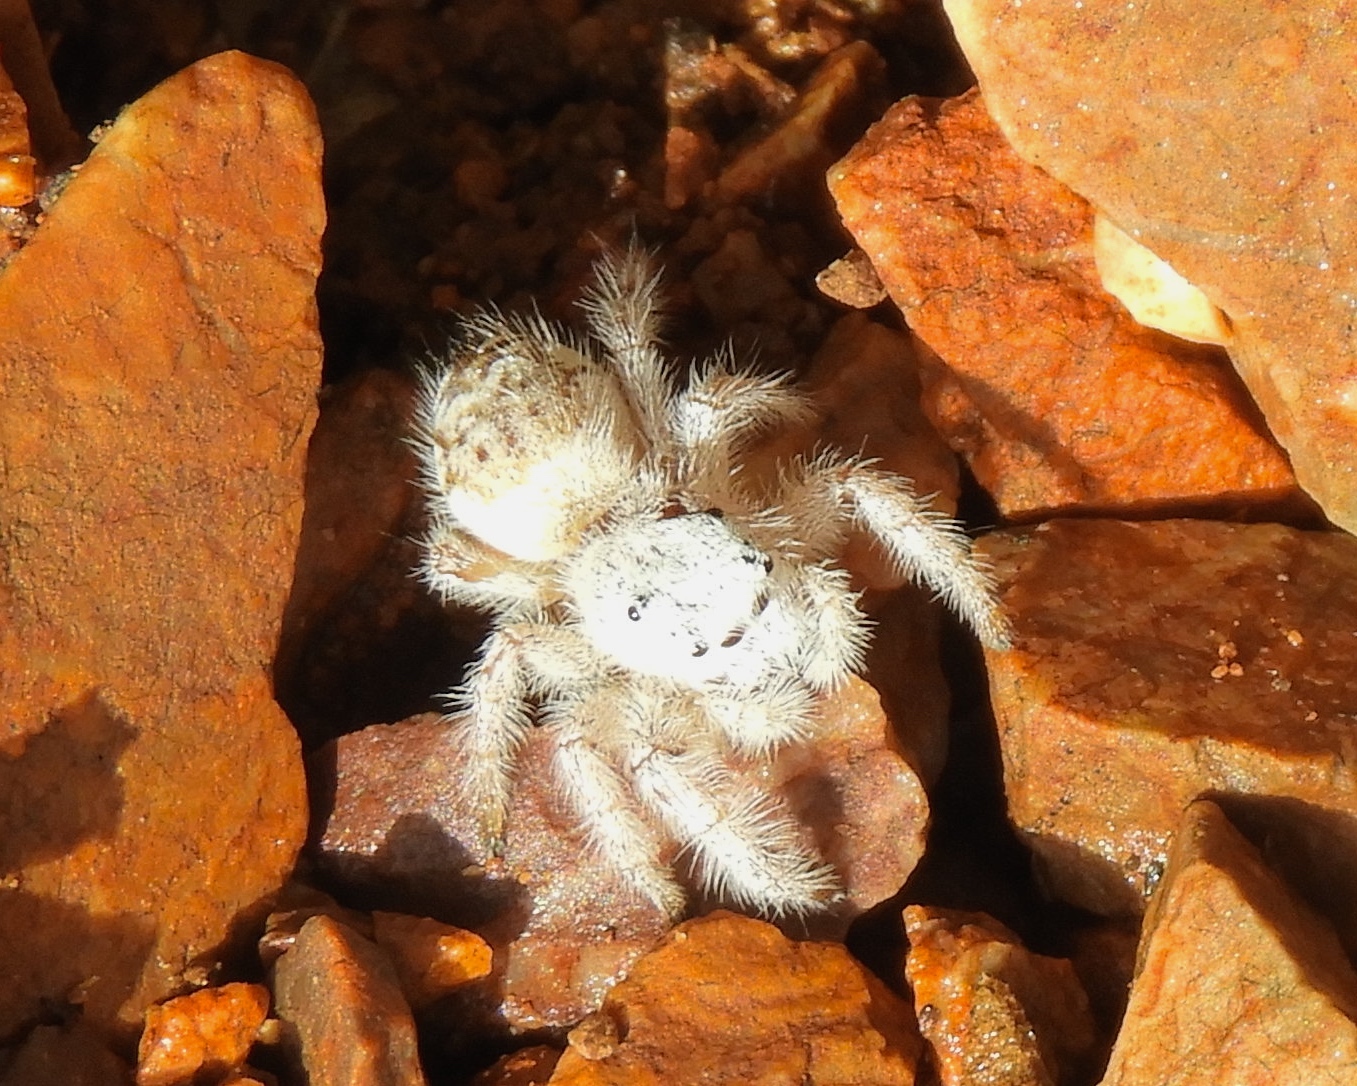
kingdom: Animalia
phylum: Arthropoda
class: Arachnida
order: Araneae
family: Salticidae
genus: Paraphidippus
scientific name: Paraphidippus fartilis
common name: Jumping spiders
